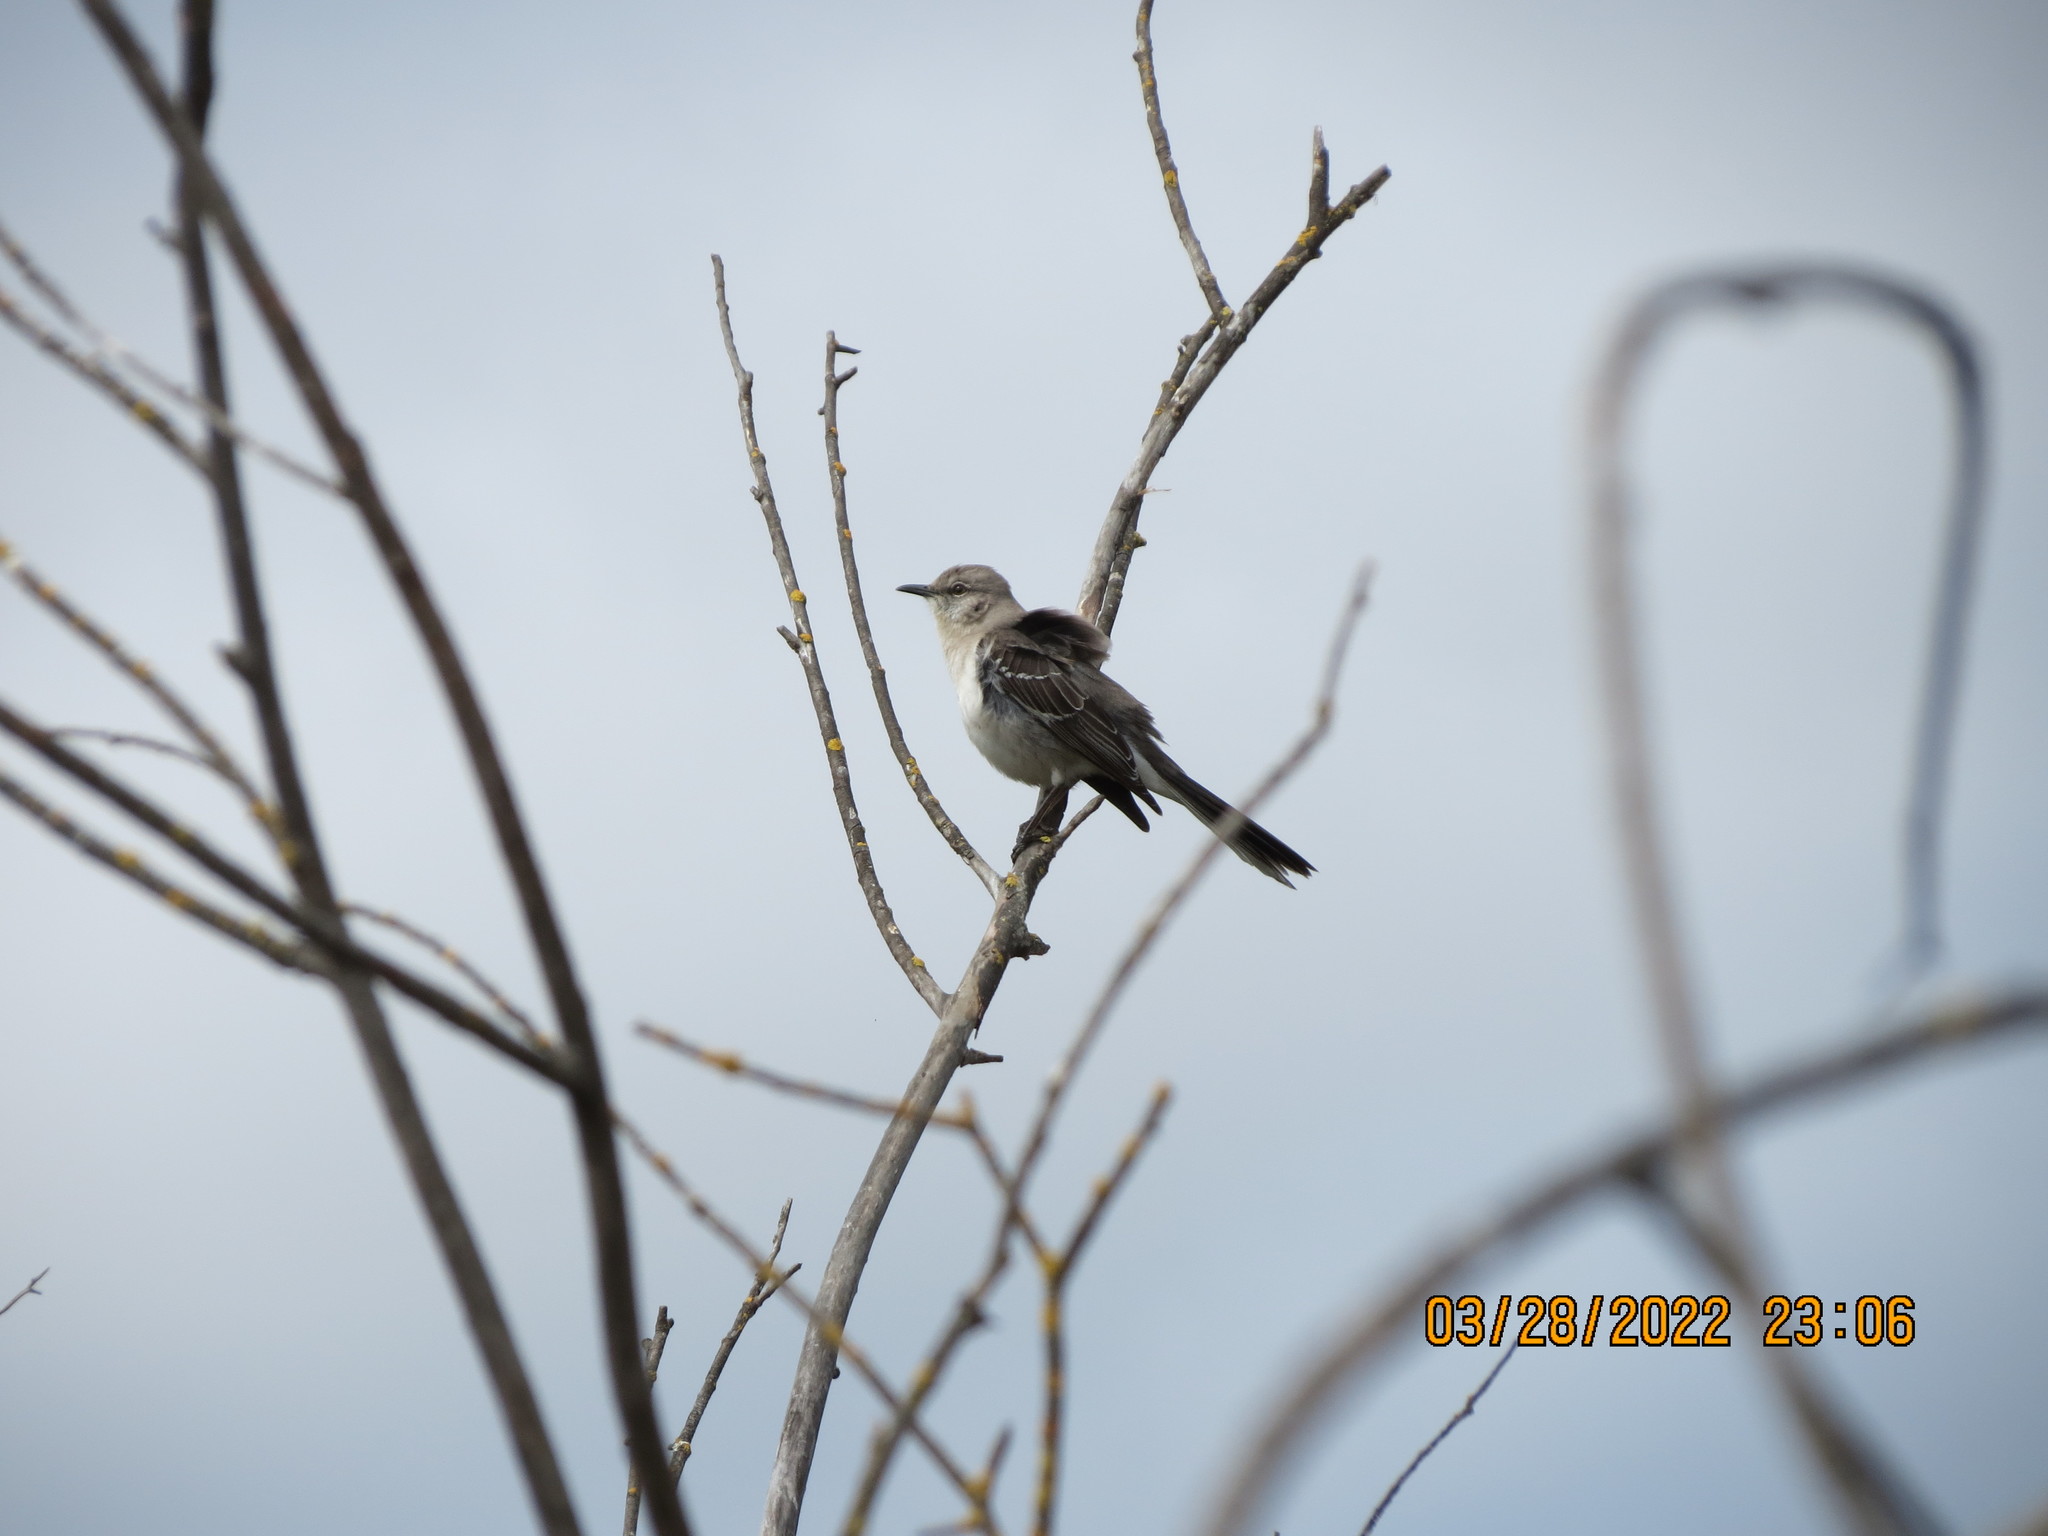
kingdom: Animalia
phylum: Chordata
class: Aves
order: Passeriformes
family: Mimidae
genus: Mimus
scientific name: Mimus polyglottos
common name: Northern mockingbird
